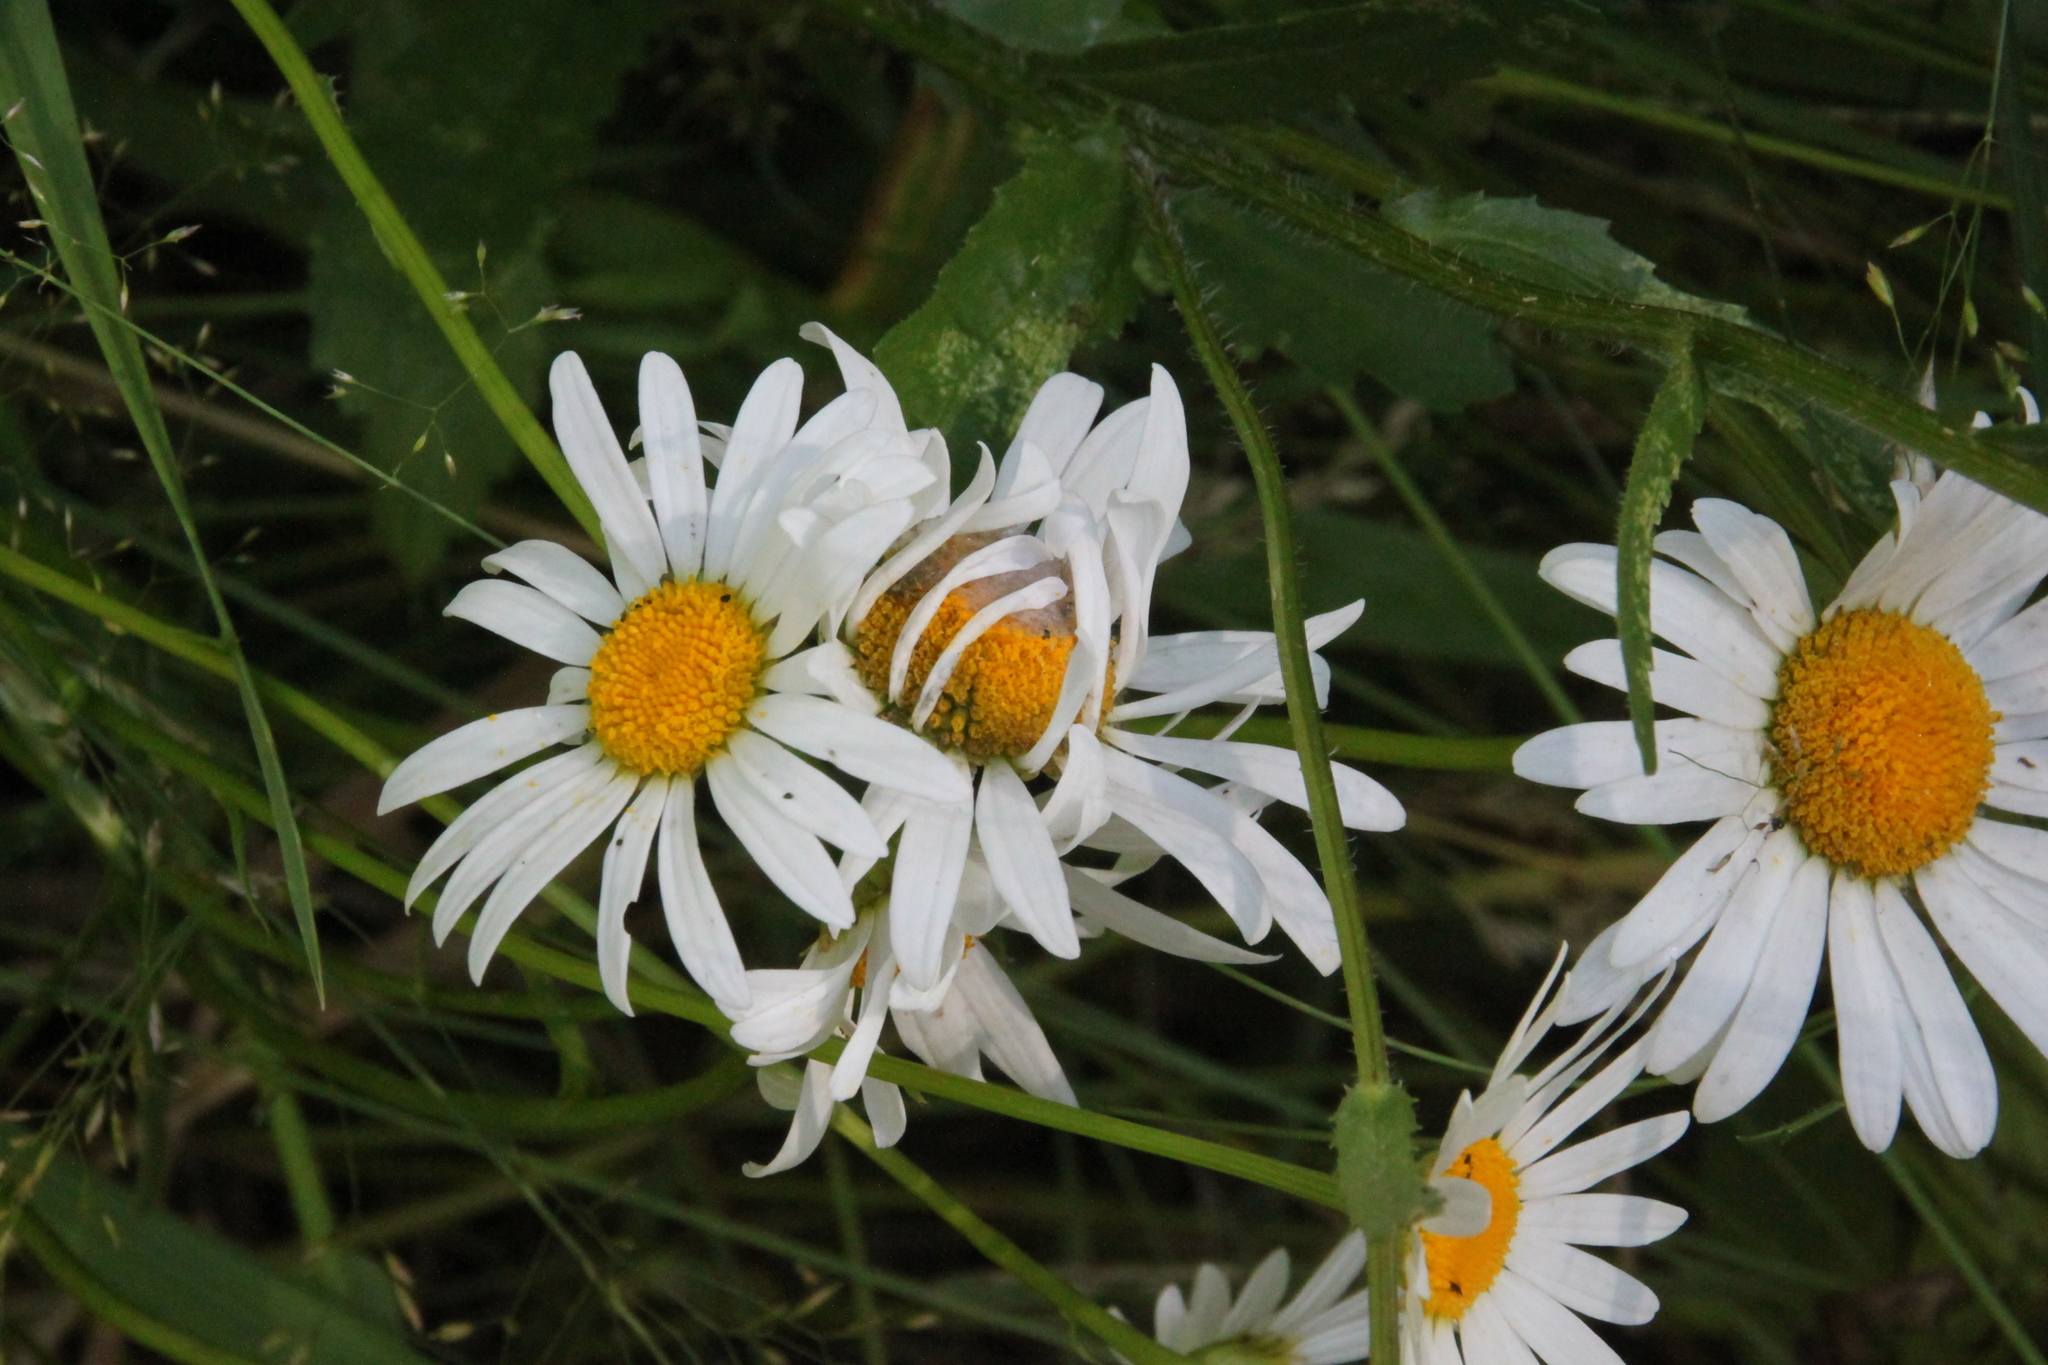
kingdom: Plantae
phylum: Tracheophyta
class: Magnoliopsida
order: Asterales
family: Asteraceae
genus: Leucanthemum
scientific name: Leucanthemum vulgare
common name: Oxeye daisy
